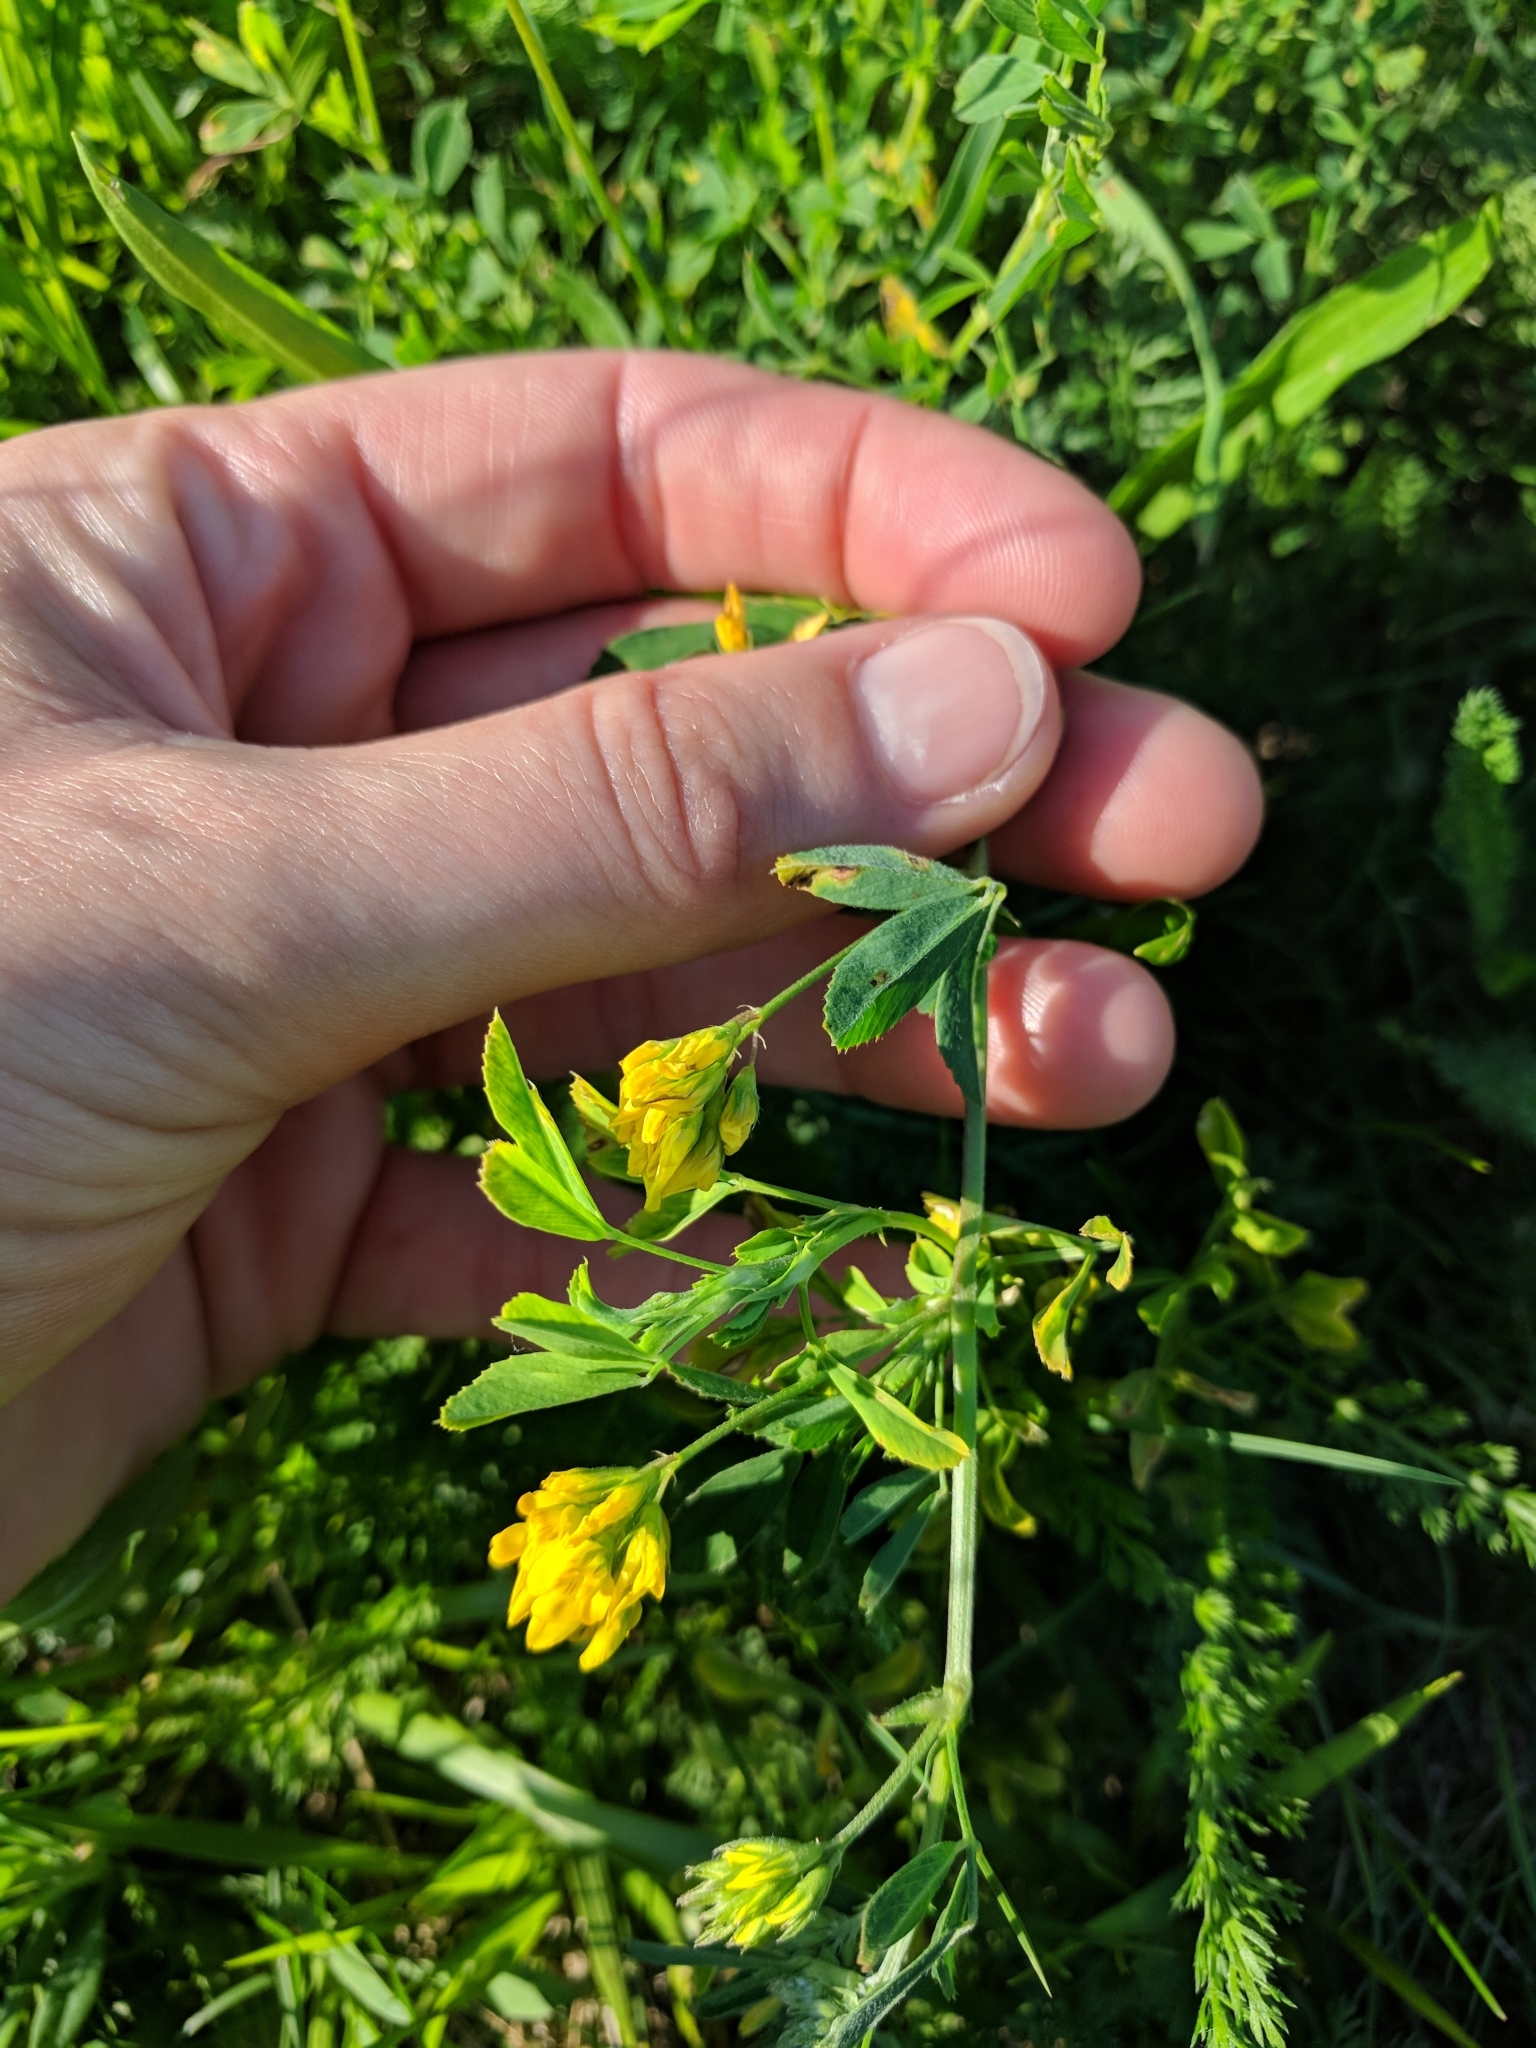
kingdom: Plantae
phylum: Tracheophyta
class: Magnoliopsida
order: Fabales
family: Fabaceae
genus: Medicago
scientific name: Medicago falcata
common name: Sickle medick
